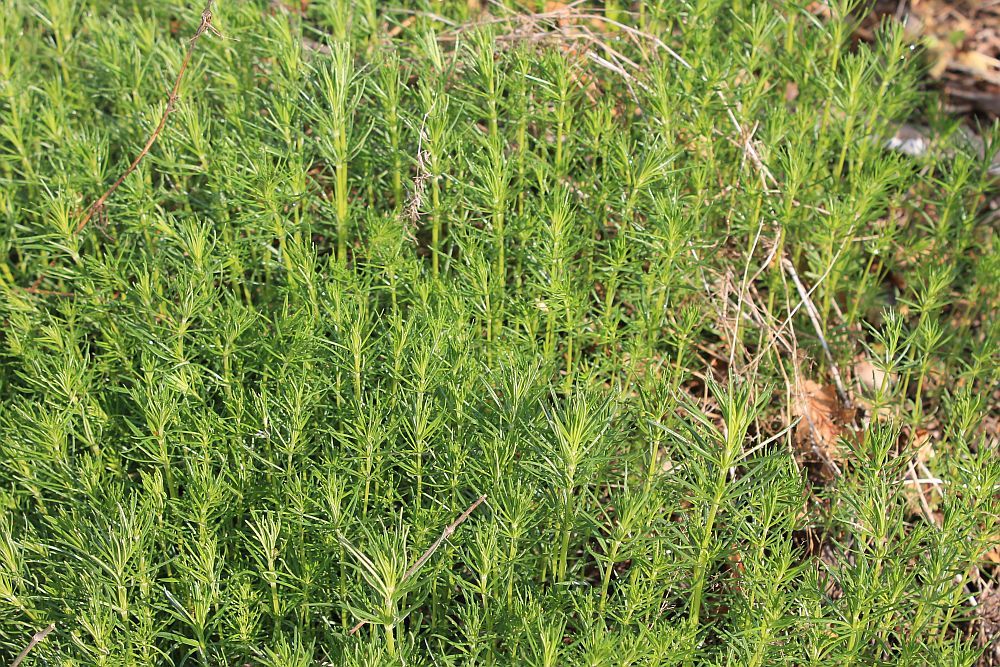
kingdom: Plantae
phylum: Tracheophyta
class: Magnoliopsida
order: Gentianales
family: Rubiaceae
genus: Galium
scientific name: Galium verum
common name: Lady's bedstraw
